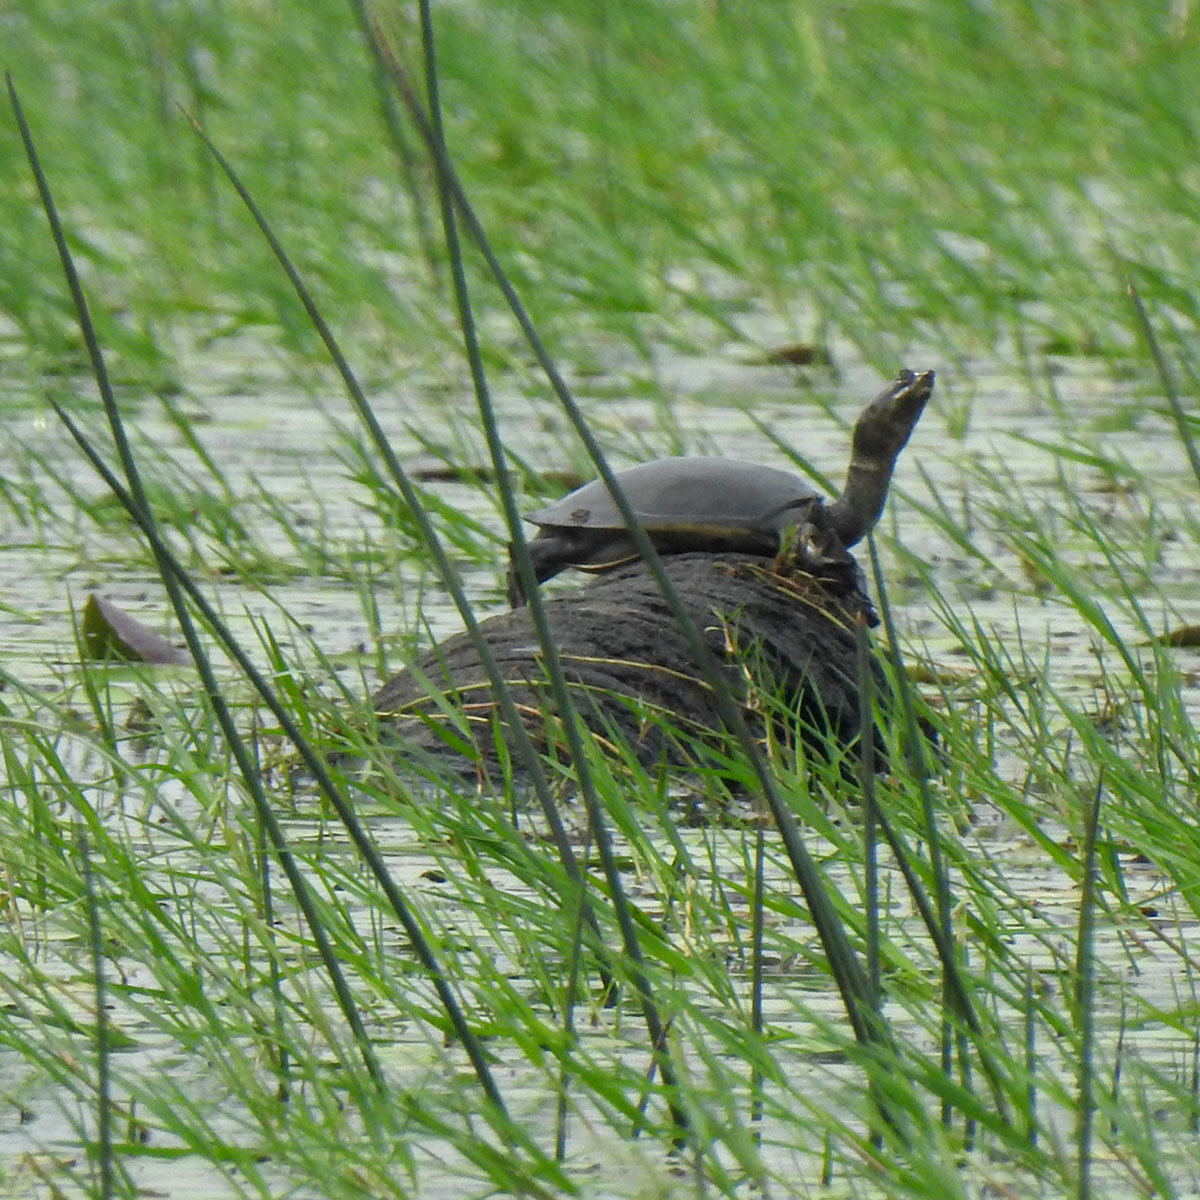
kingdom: Animalia
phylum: Chordata
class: Testudines
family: Trionychidae
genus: Lissemys
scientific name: Lissemys punctata
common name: Indian flap-shelled turtle
